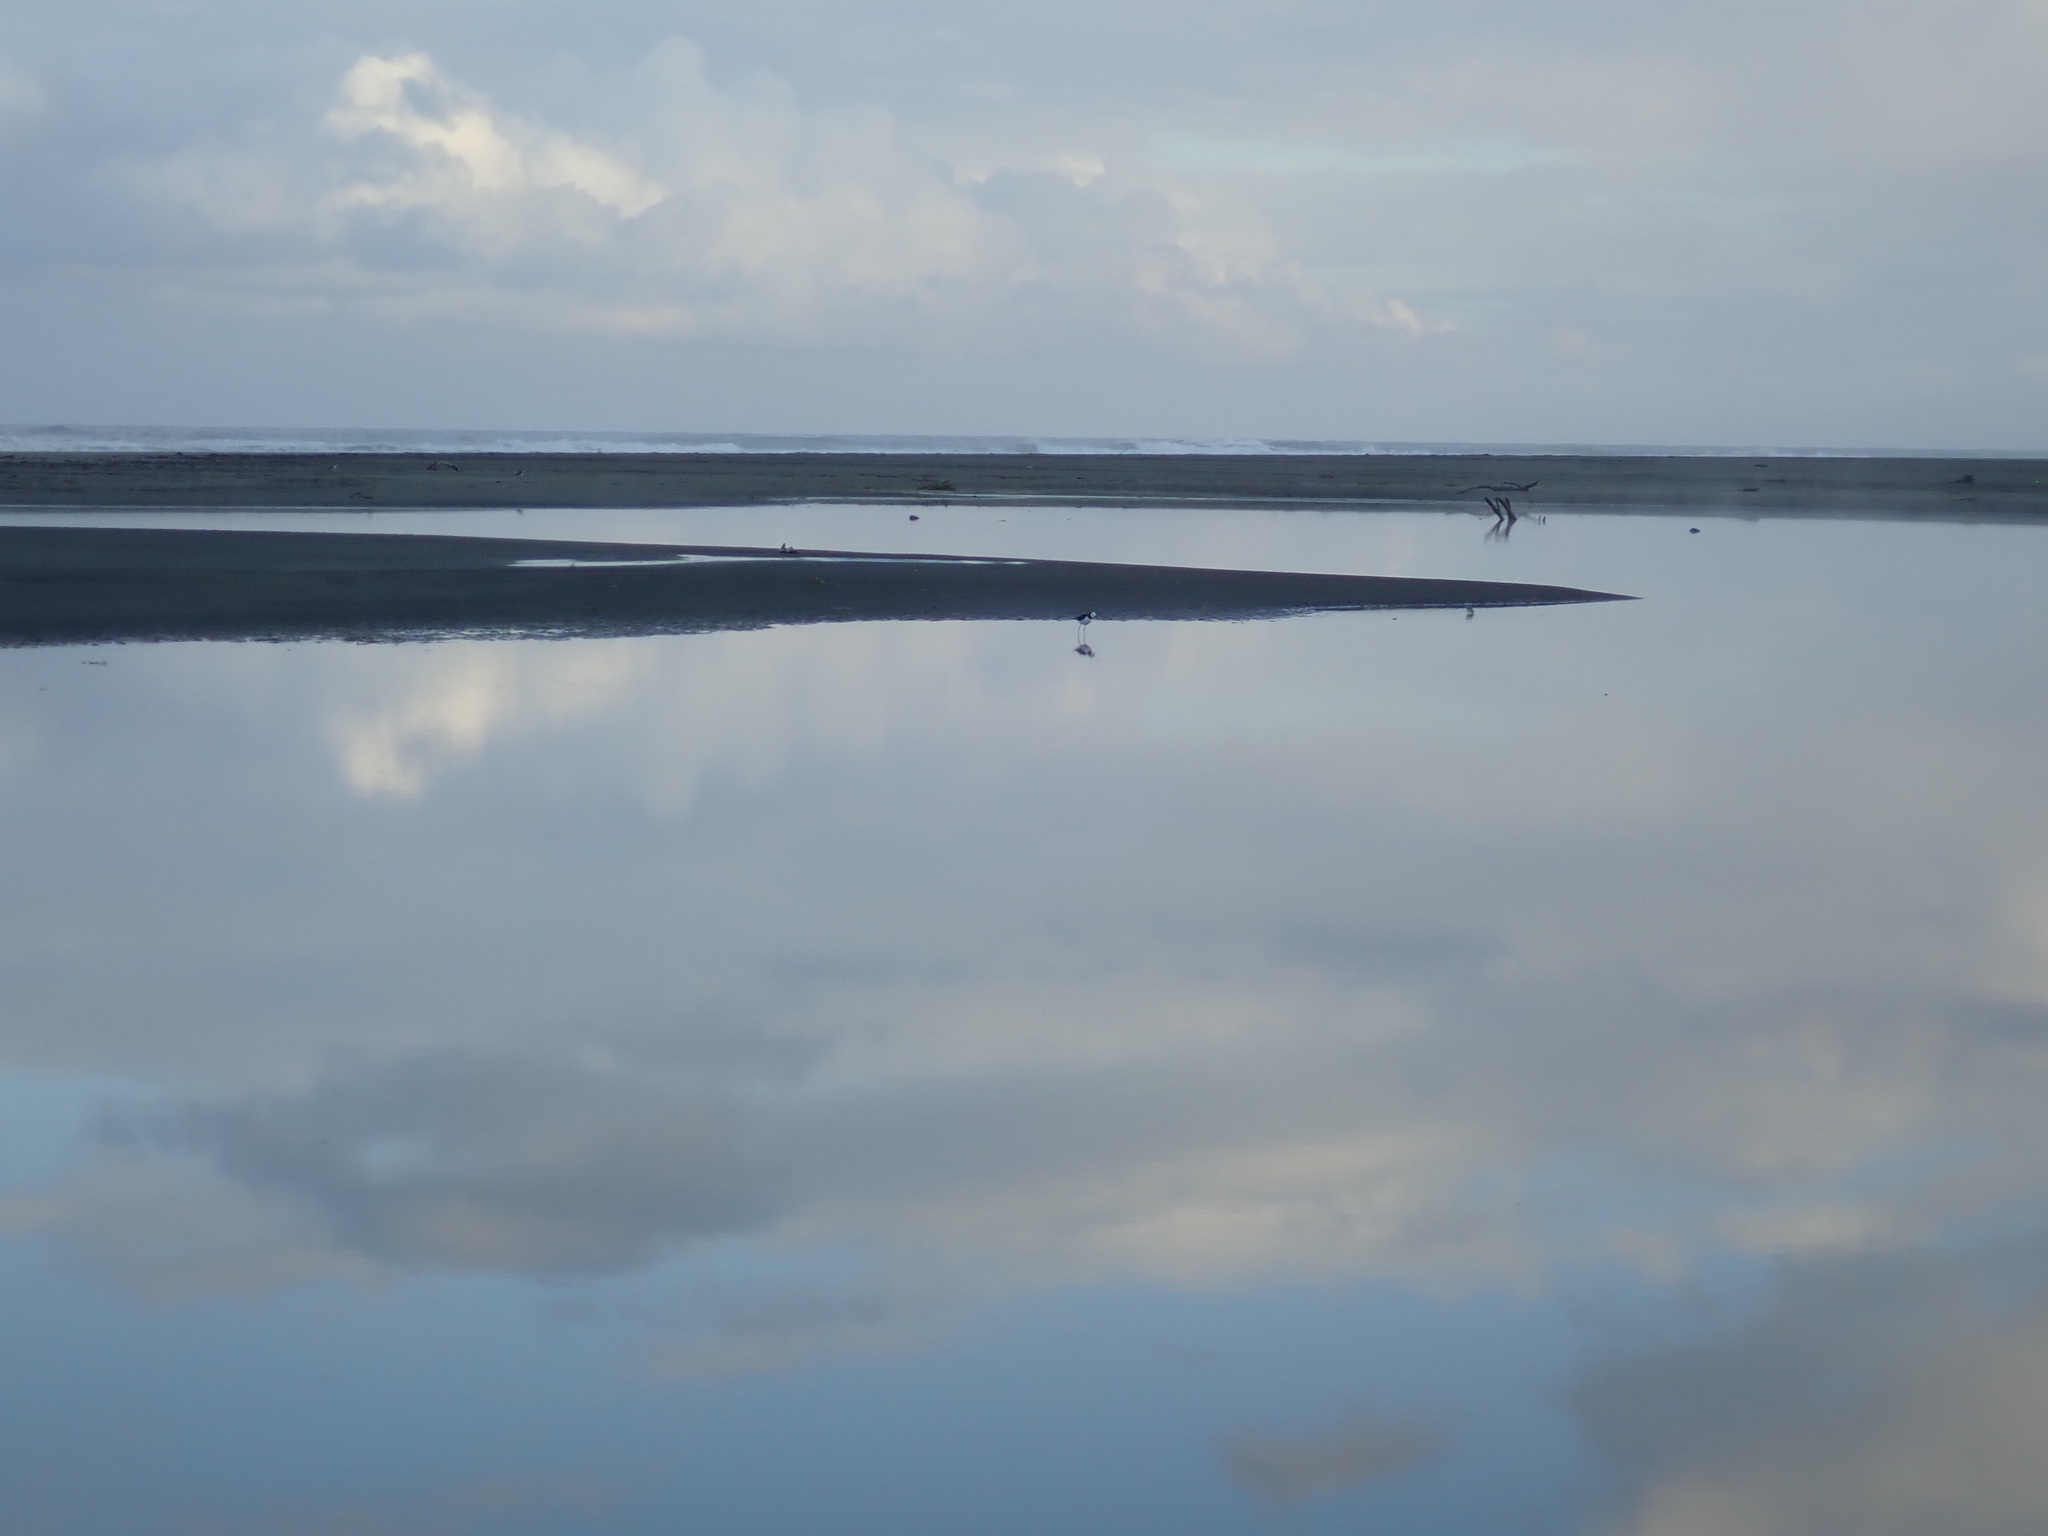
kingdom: Animalia
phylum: Chordata
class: Aves
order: Charadriiformes
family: Recurvirostridae
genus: Himantopus
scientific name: Himantopus leucocephalus
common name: White-headed stilt
